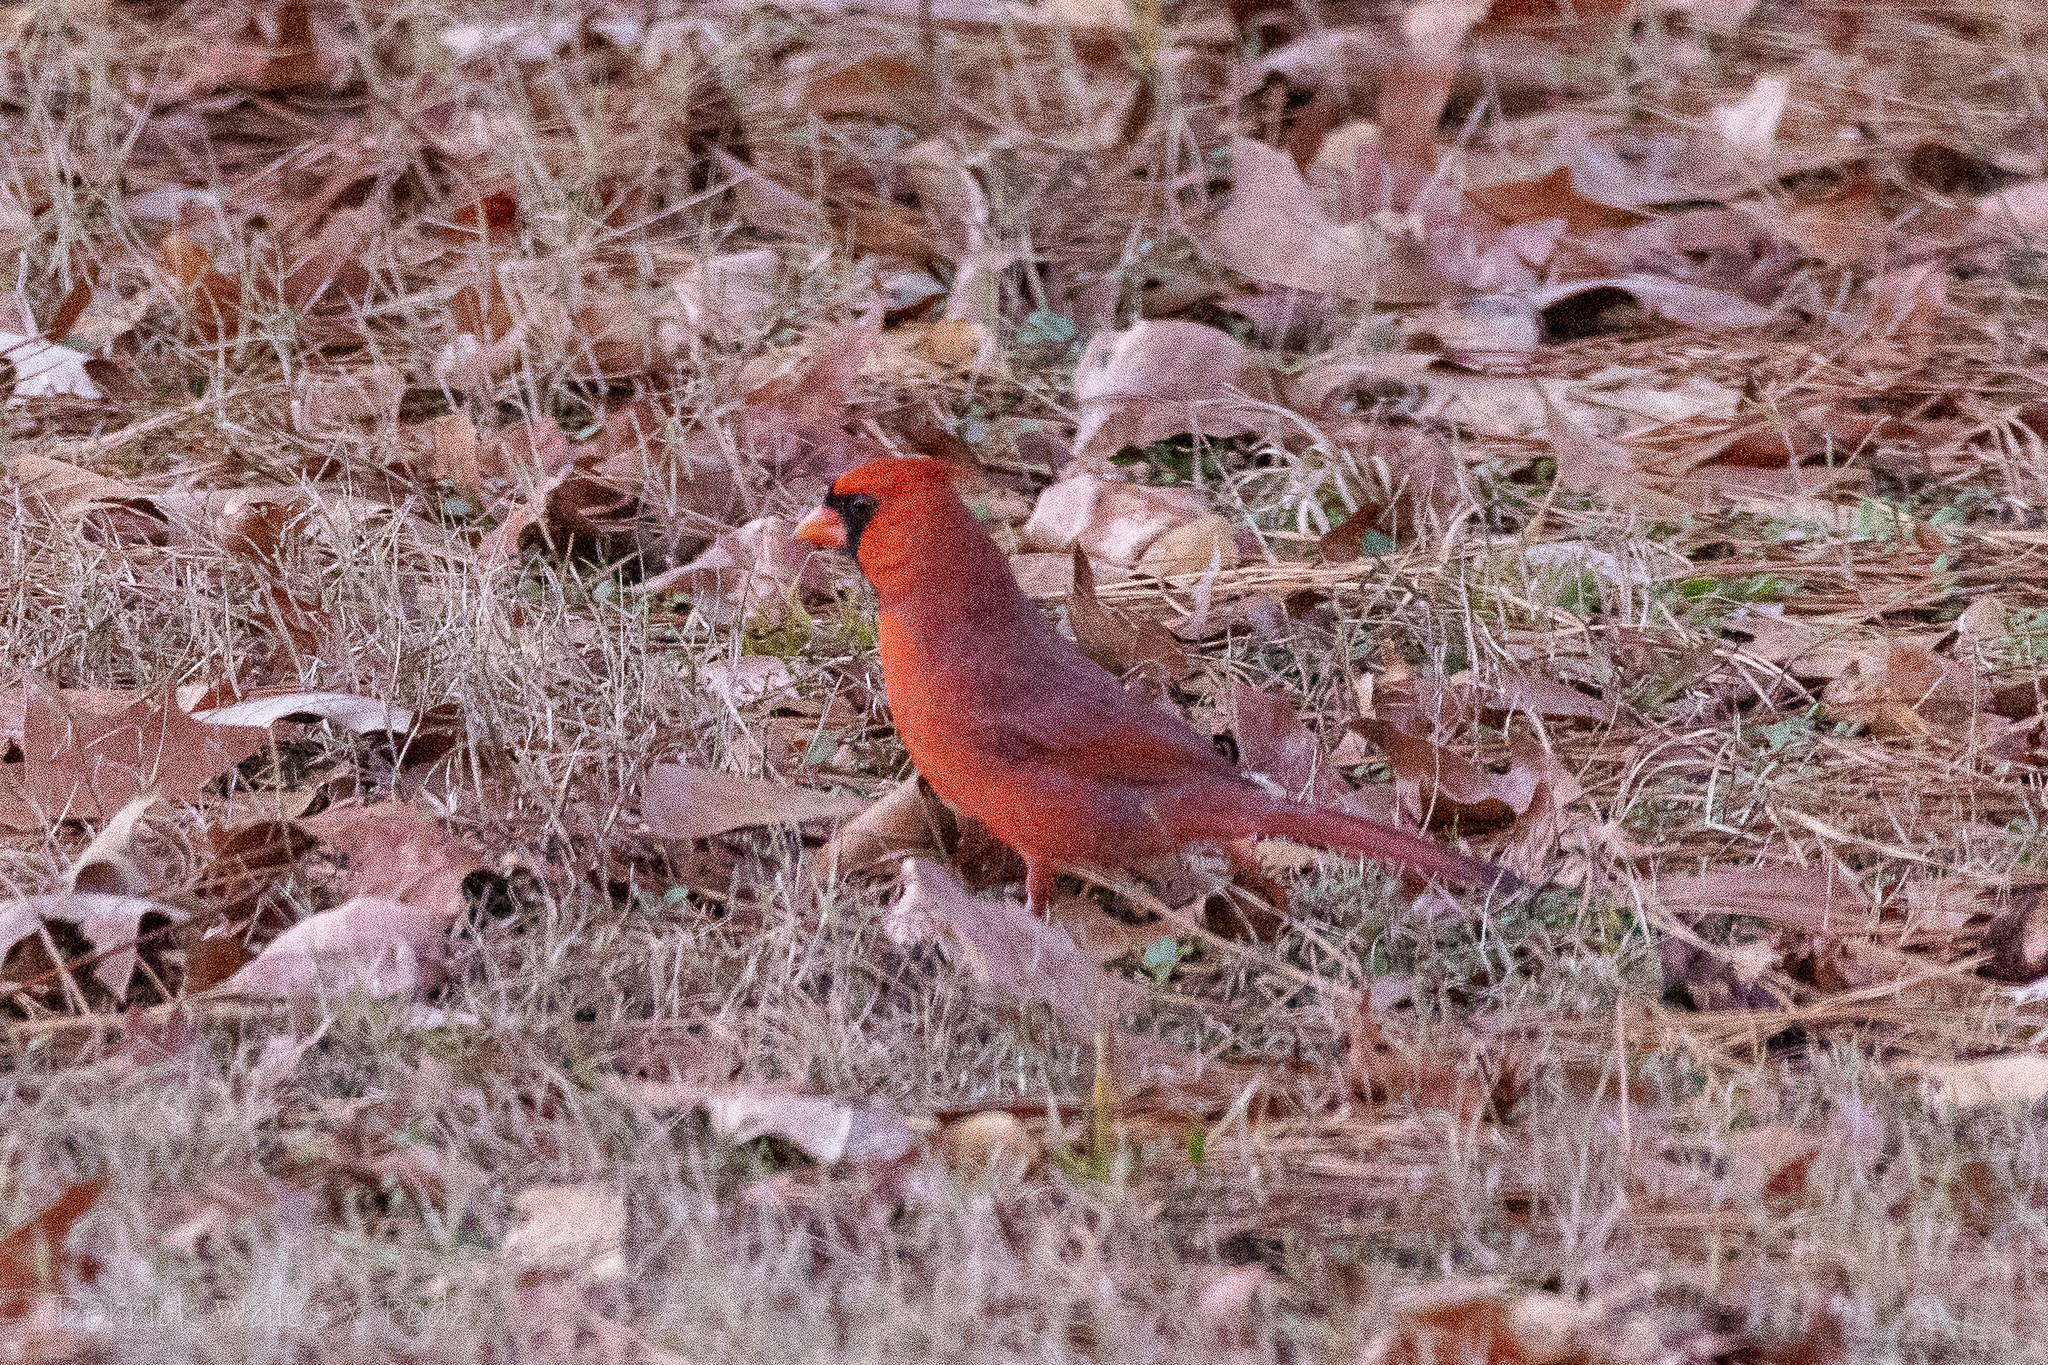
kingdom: Animalia
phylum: Chordata
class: Aves
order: Passeriformes
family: Cardinalidae
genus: Cardinalis
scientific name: Cardinalis cardinalis
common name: Northern cardinal
